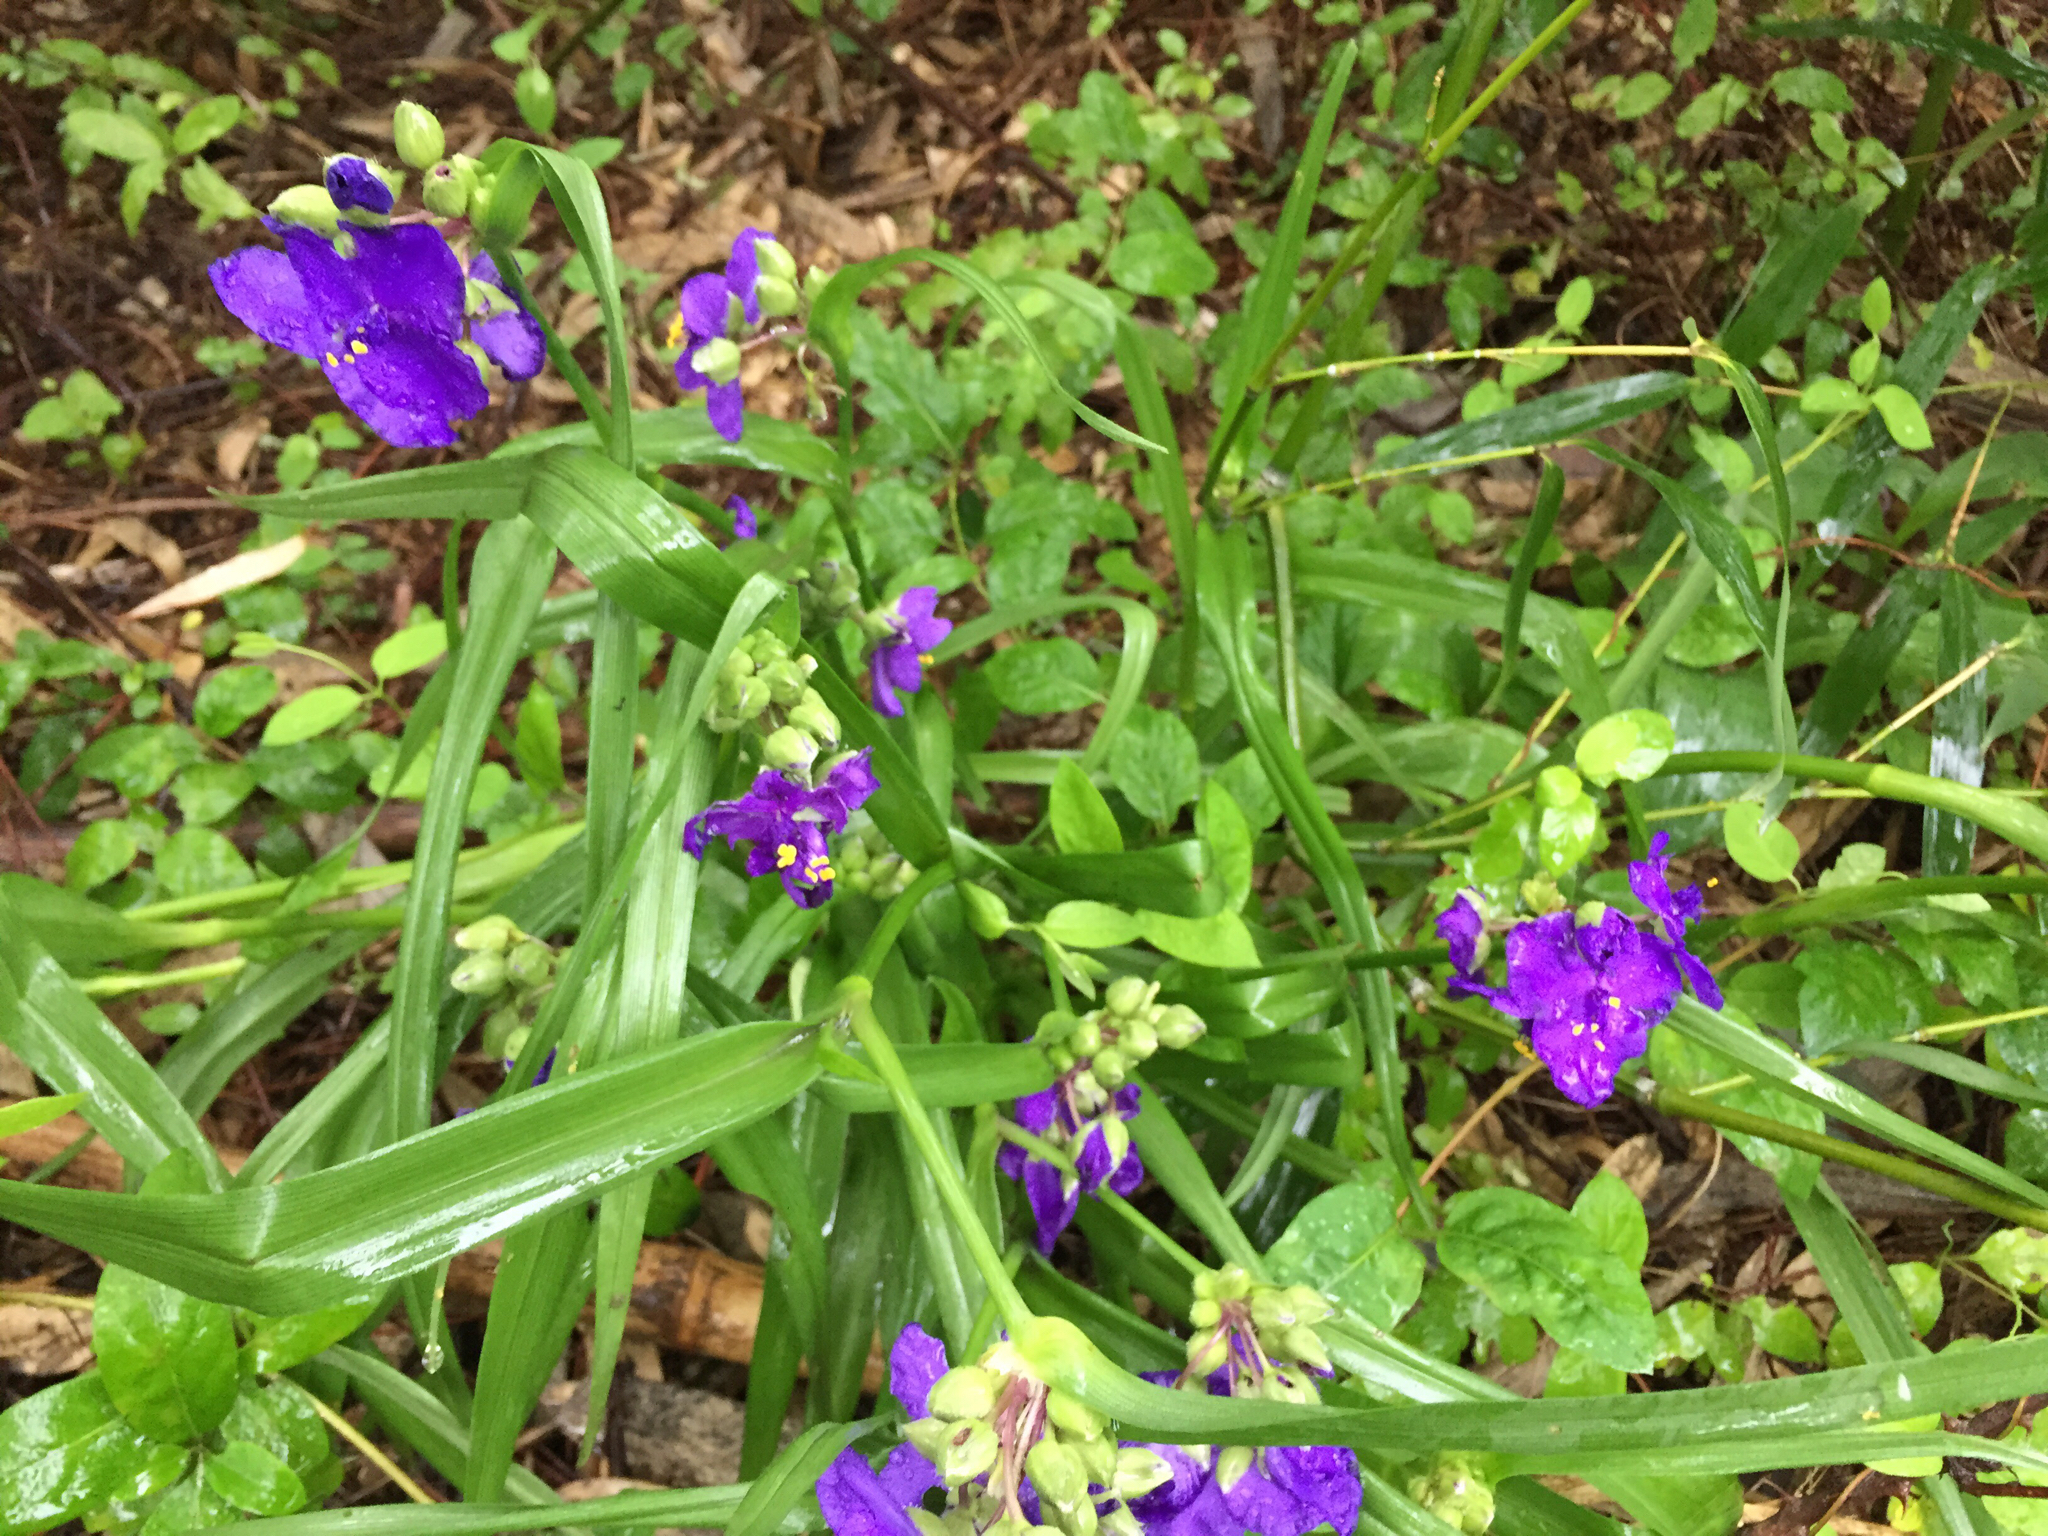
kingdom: Plantae
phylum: Tracheophyta
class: Liliopsida
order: Commelinales
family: Commelinaceae
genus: Tradescantia
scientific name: Tradescantia virginiana
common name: Spiderwort
